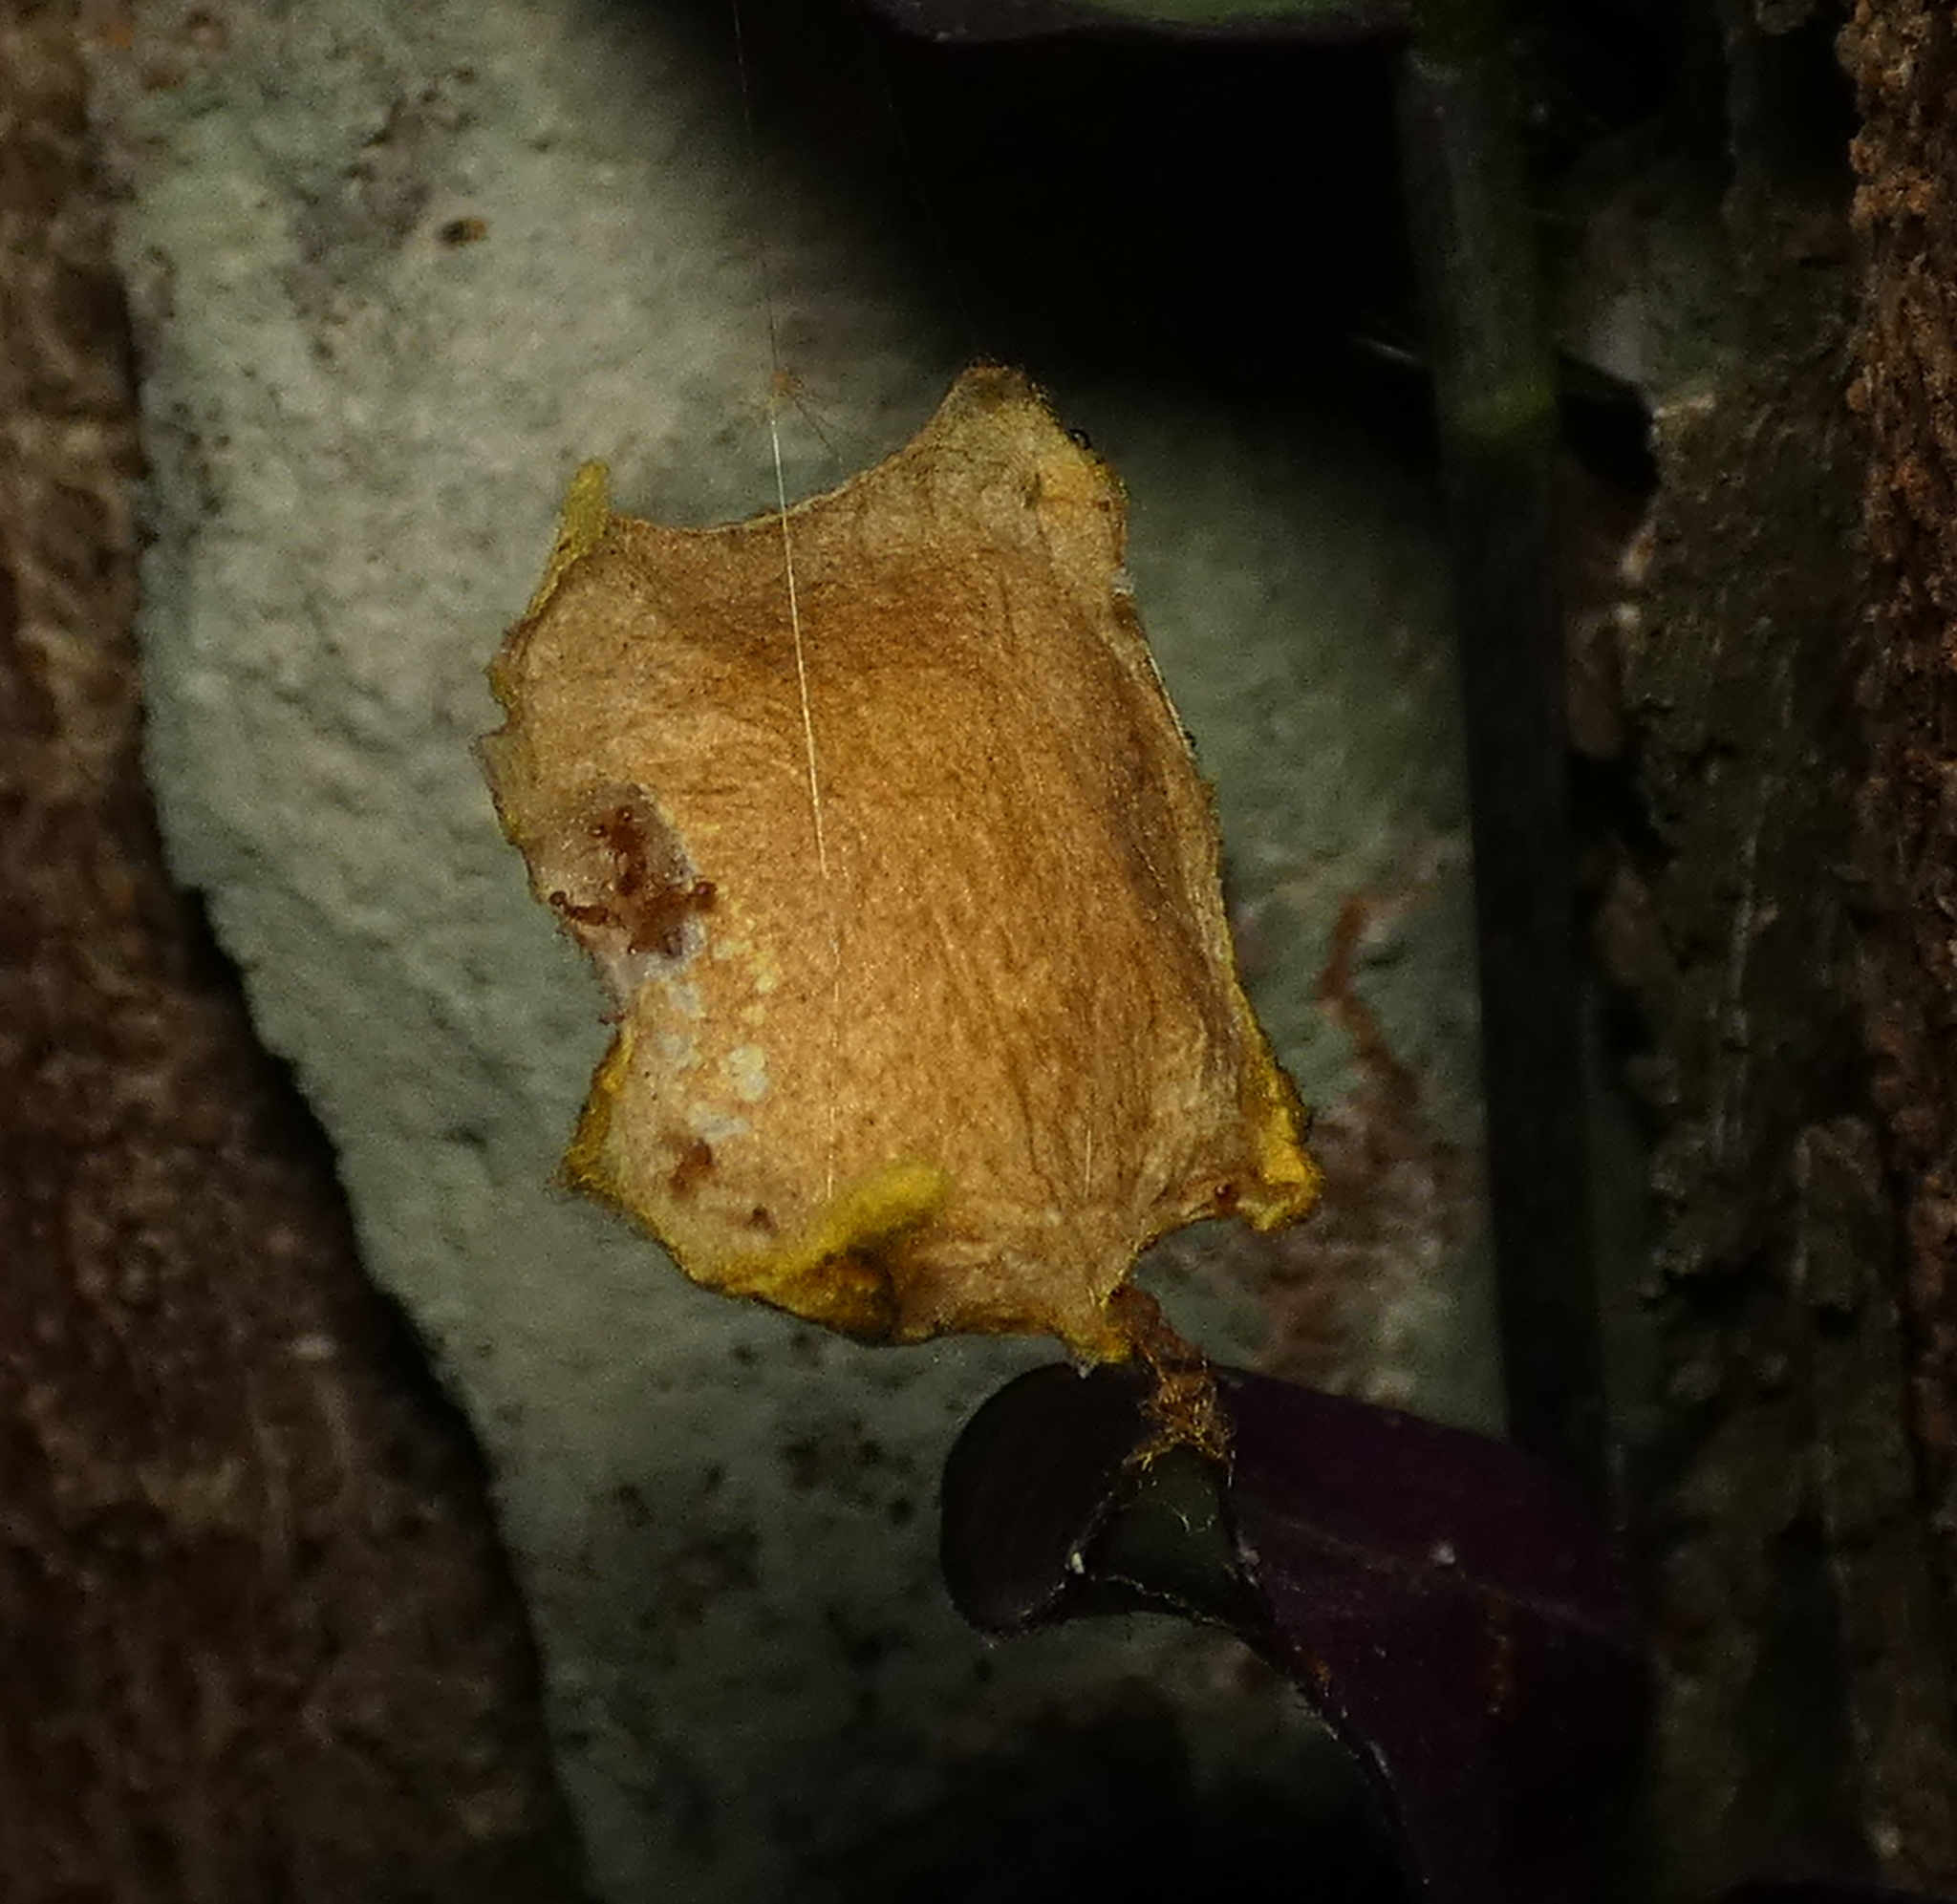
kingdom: Animalia
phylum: Arthropoda
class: Arachnida
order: Araneae
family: Araneidae
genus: Argiope
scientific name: Argiope argentata
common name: Orb weavers
